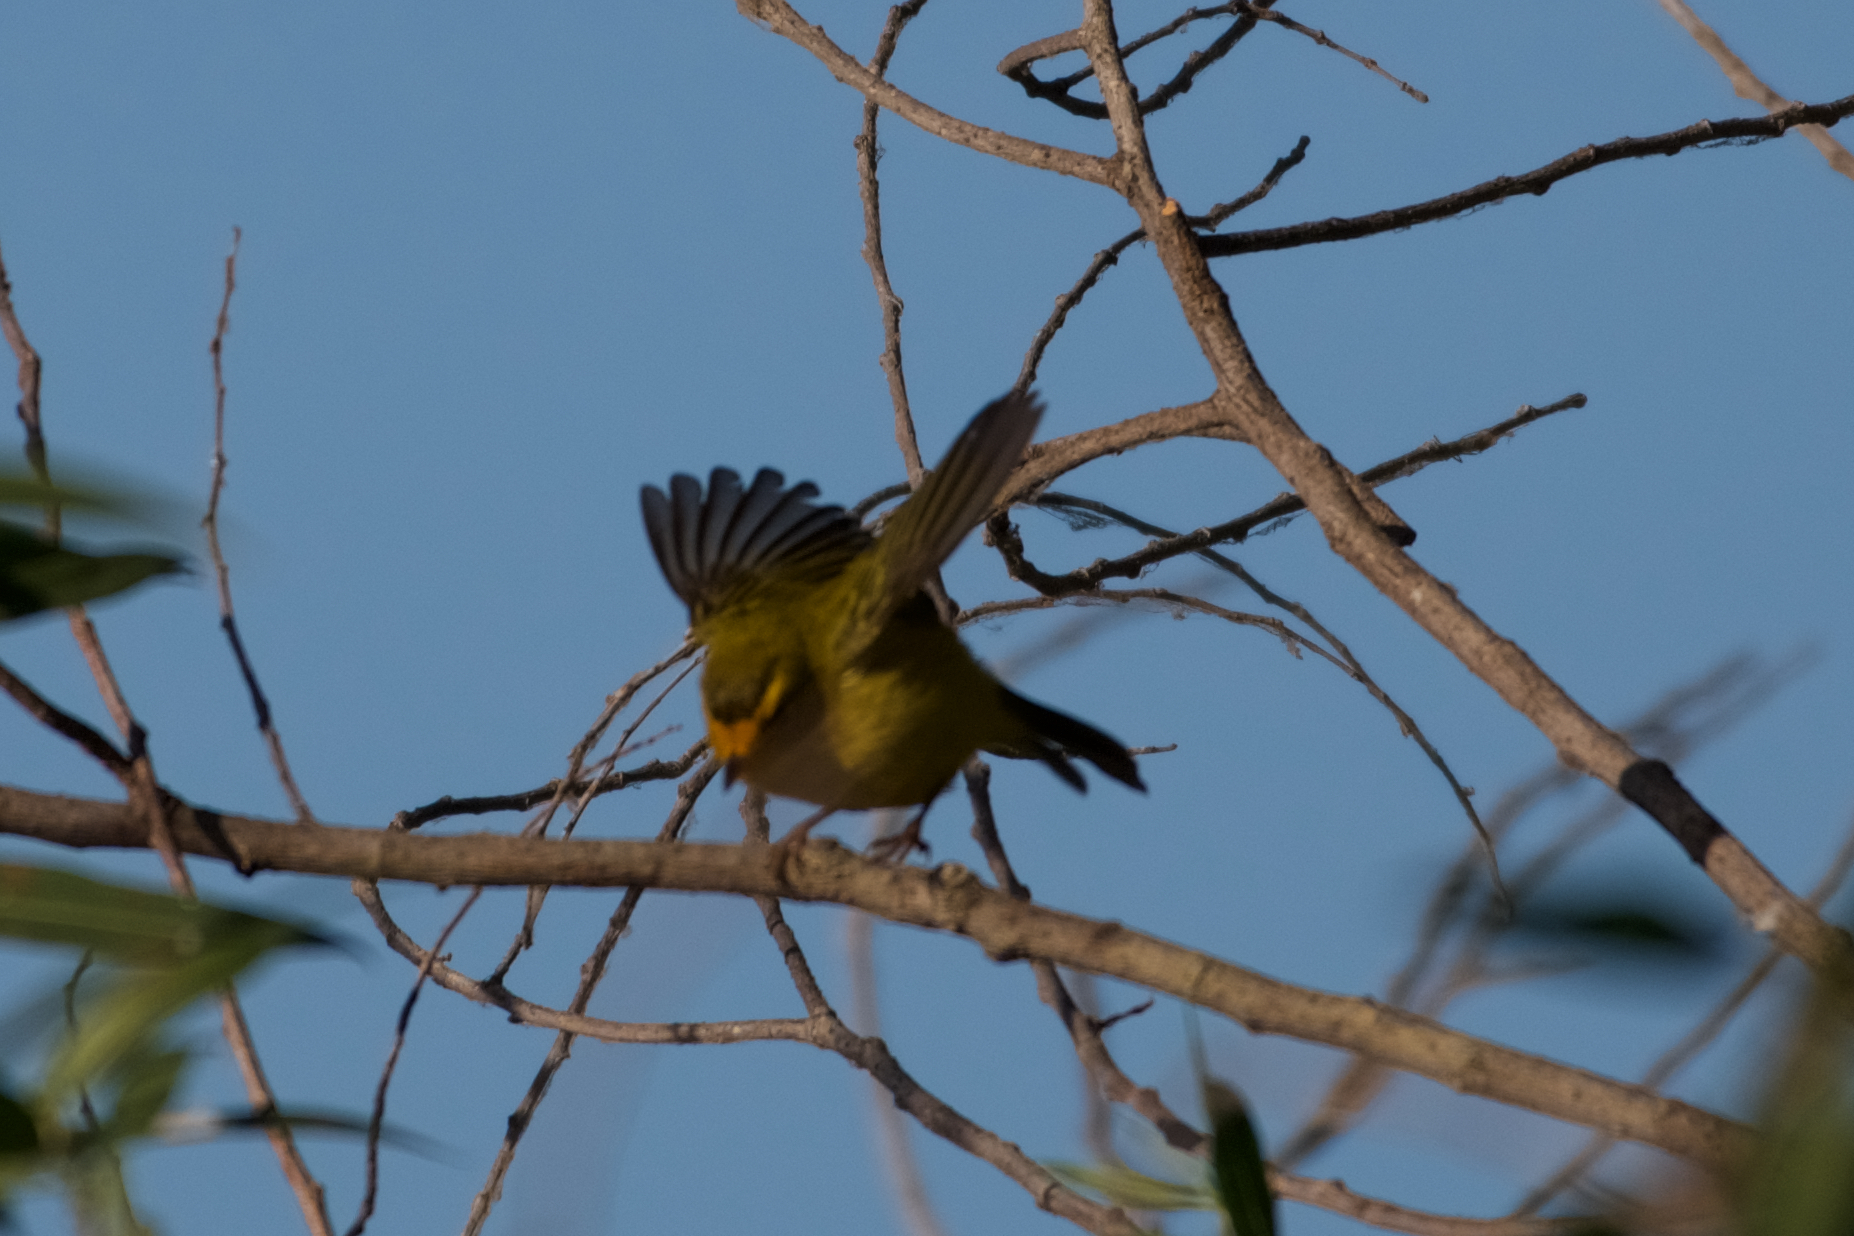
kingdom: Animalia
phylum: Chordata
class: Aves
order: Passeriformes
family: Parulidae
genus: Cardellina
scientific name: Cardellina pusilla
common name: Wilson's warbler
